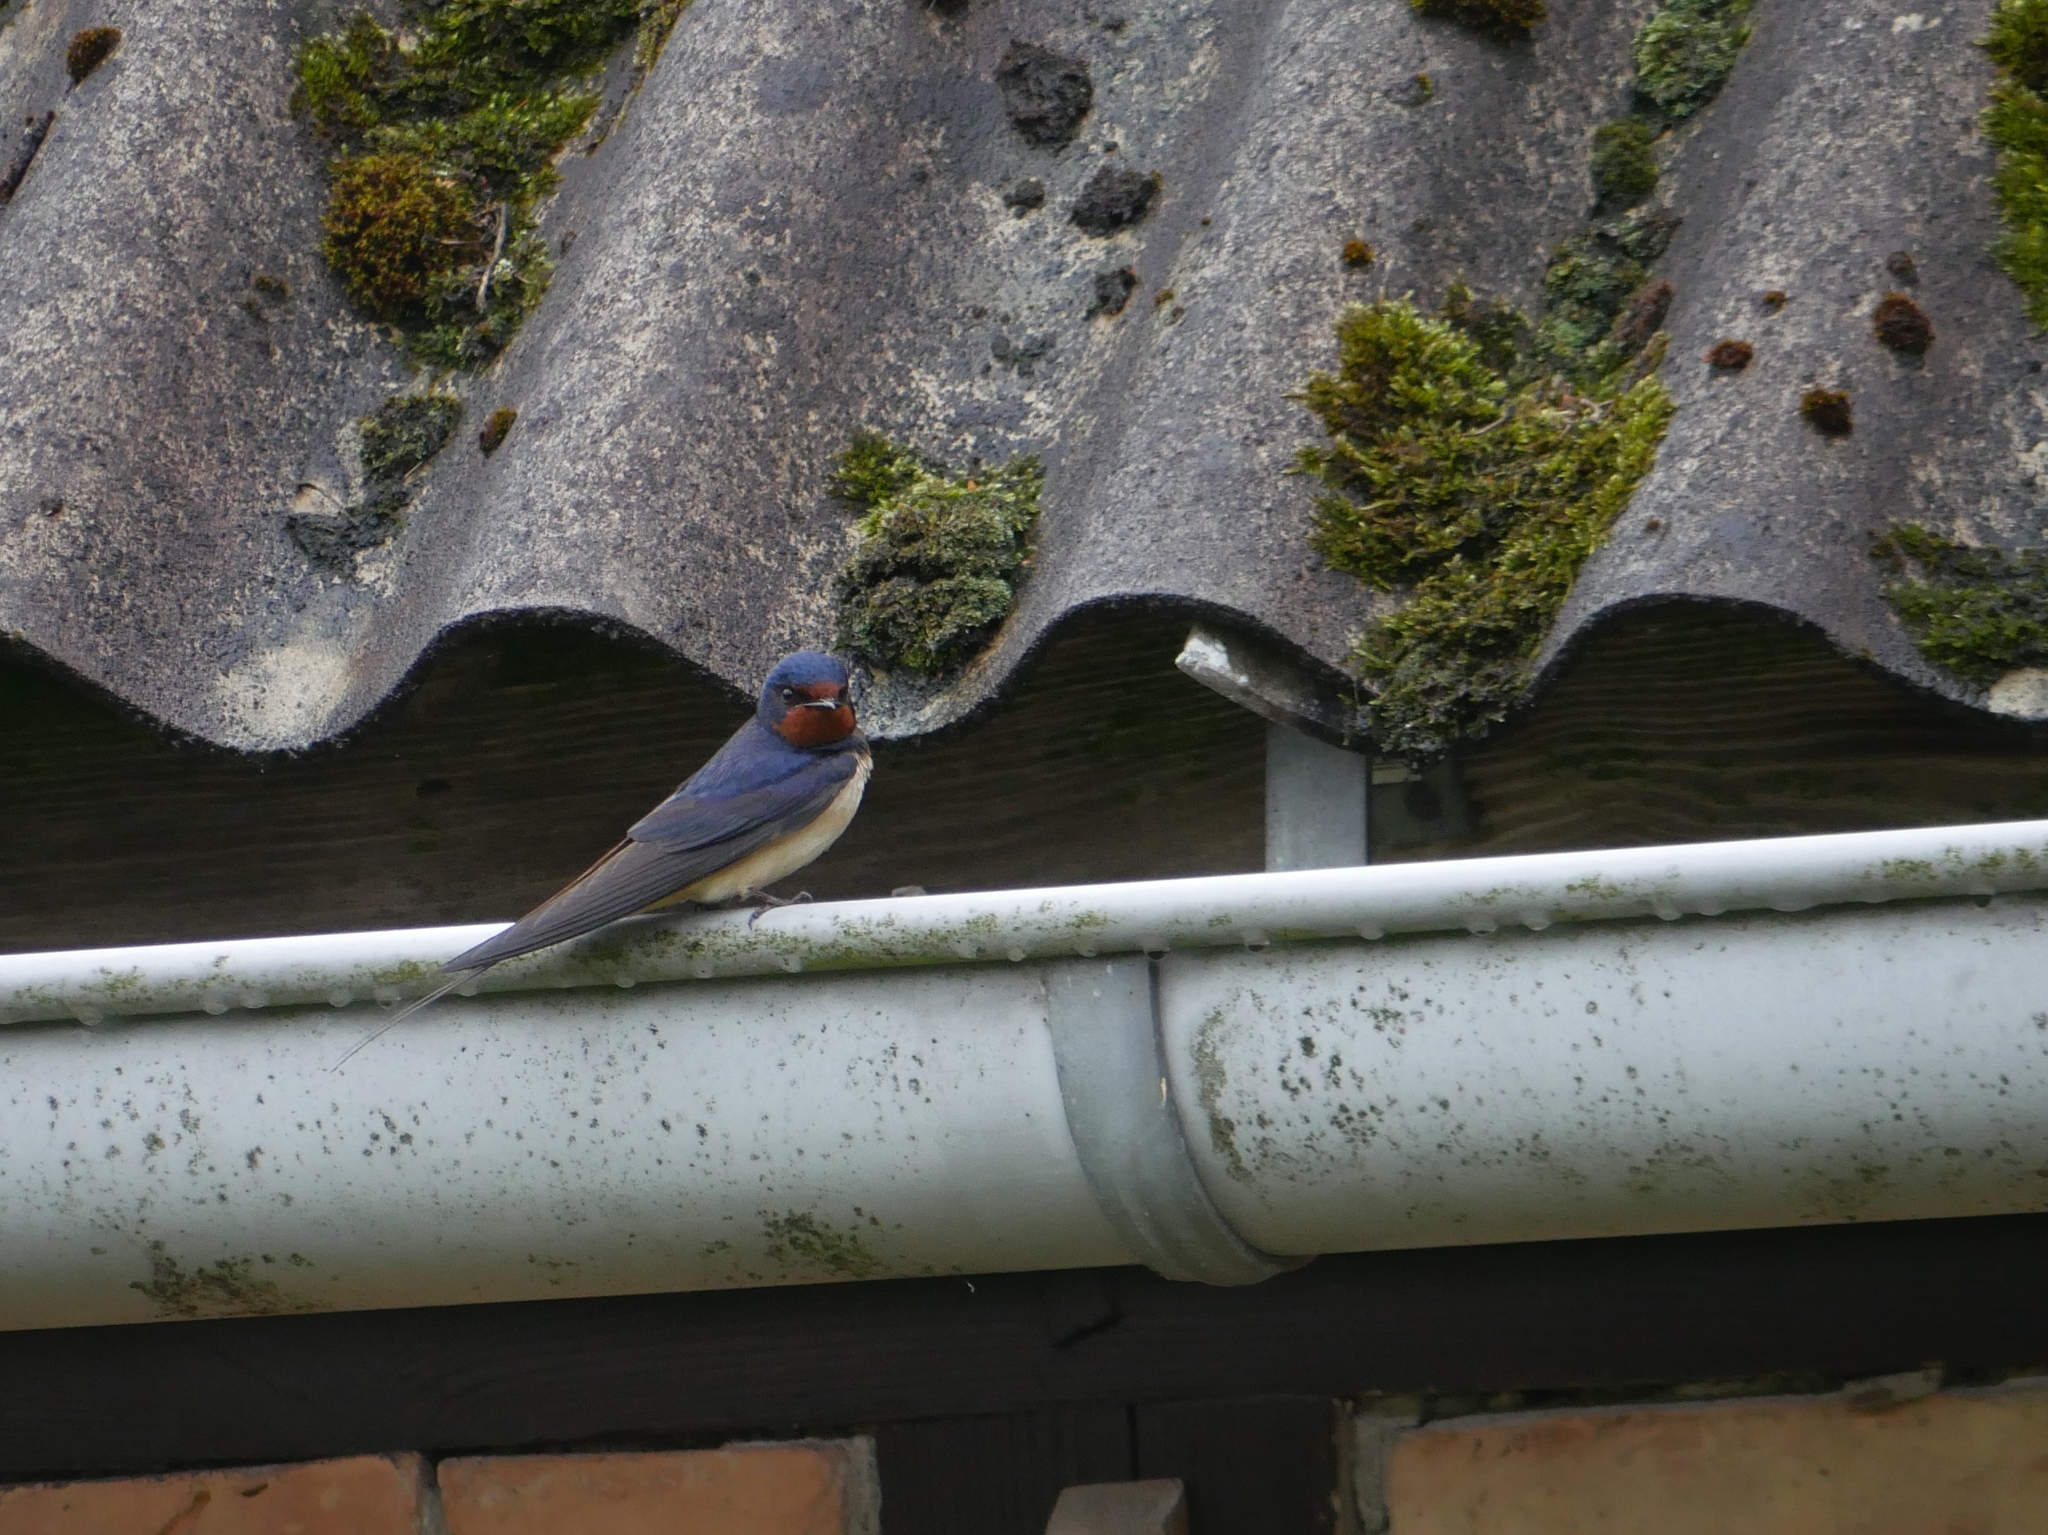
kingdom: Animalia
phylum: Chordata
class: Aves
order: Passeriformes
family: Hirundinidae
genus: Hirundo
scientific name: Hirundo rustica
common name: Barn swallow
